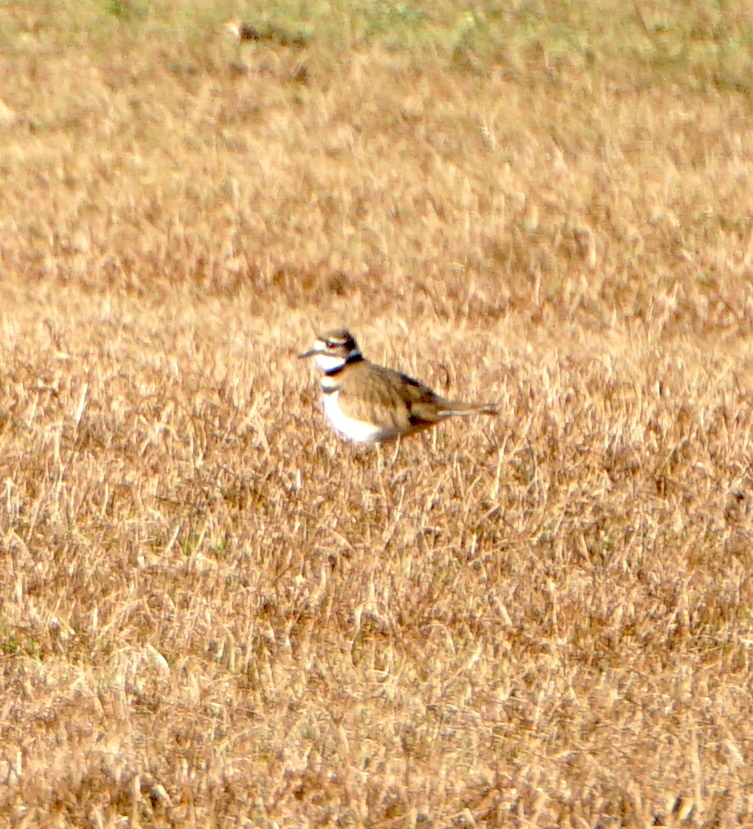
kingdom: Animalia
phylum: Chordata
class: Aves
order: Charadriiformes
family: Charadriidae
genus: Charadrius
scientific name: Charadrius vociferus
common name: Killdeer
